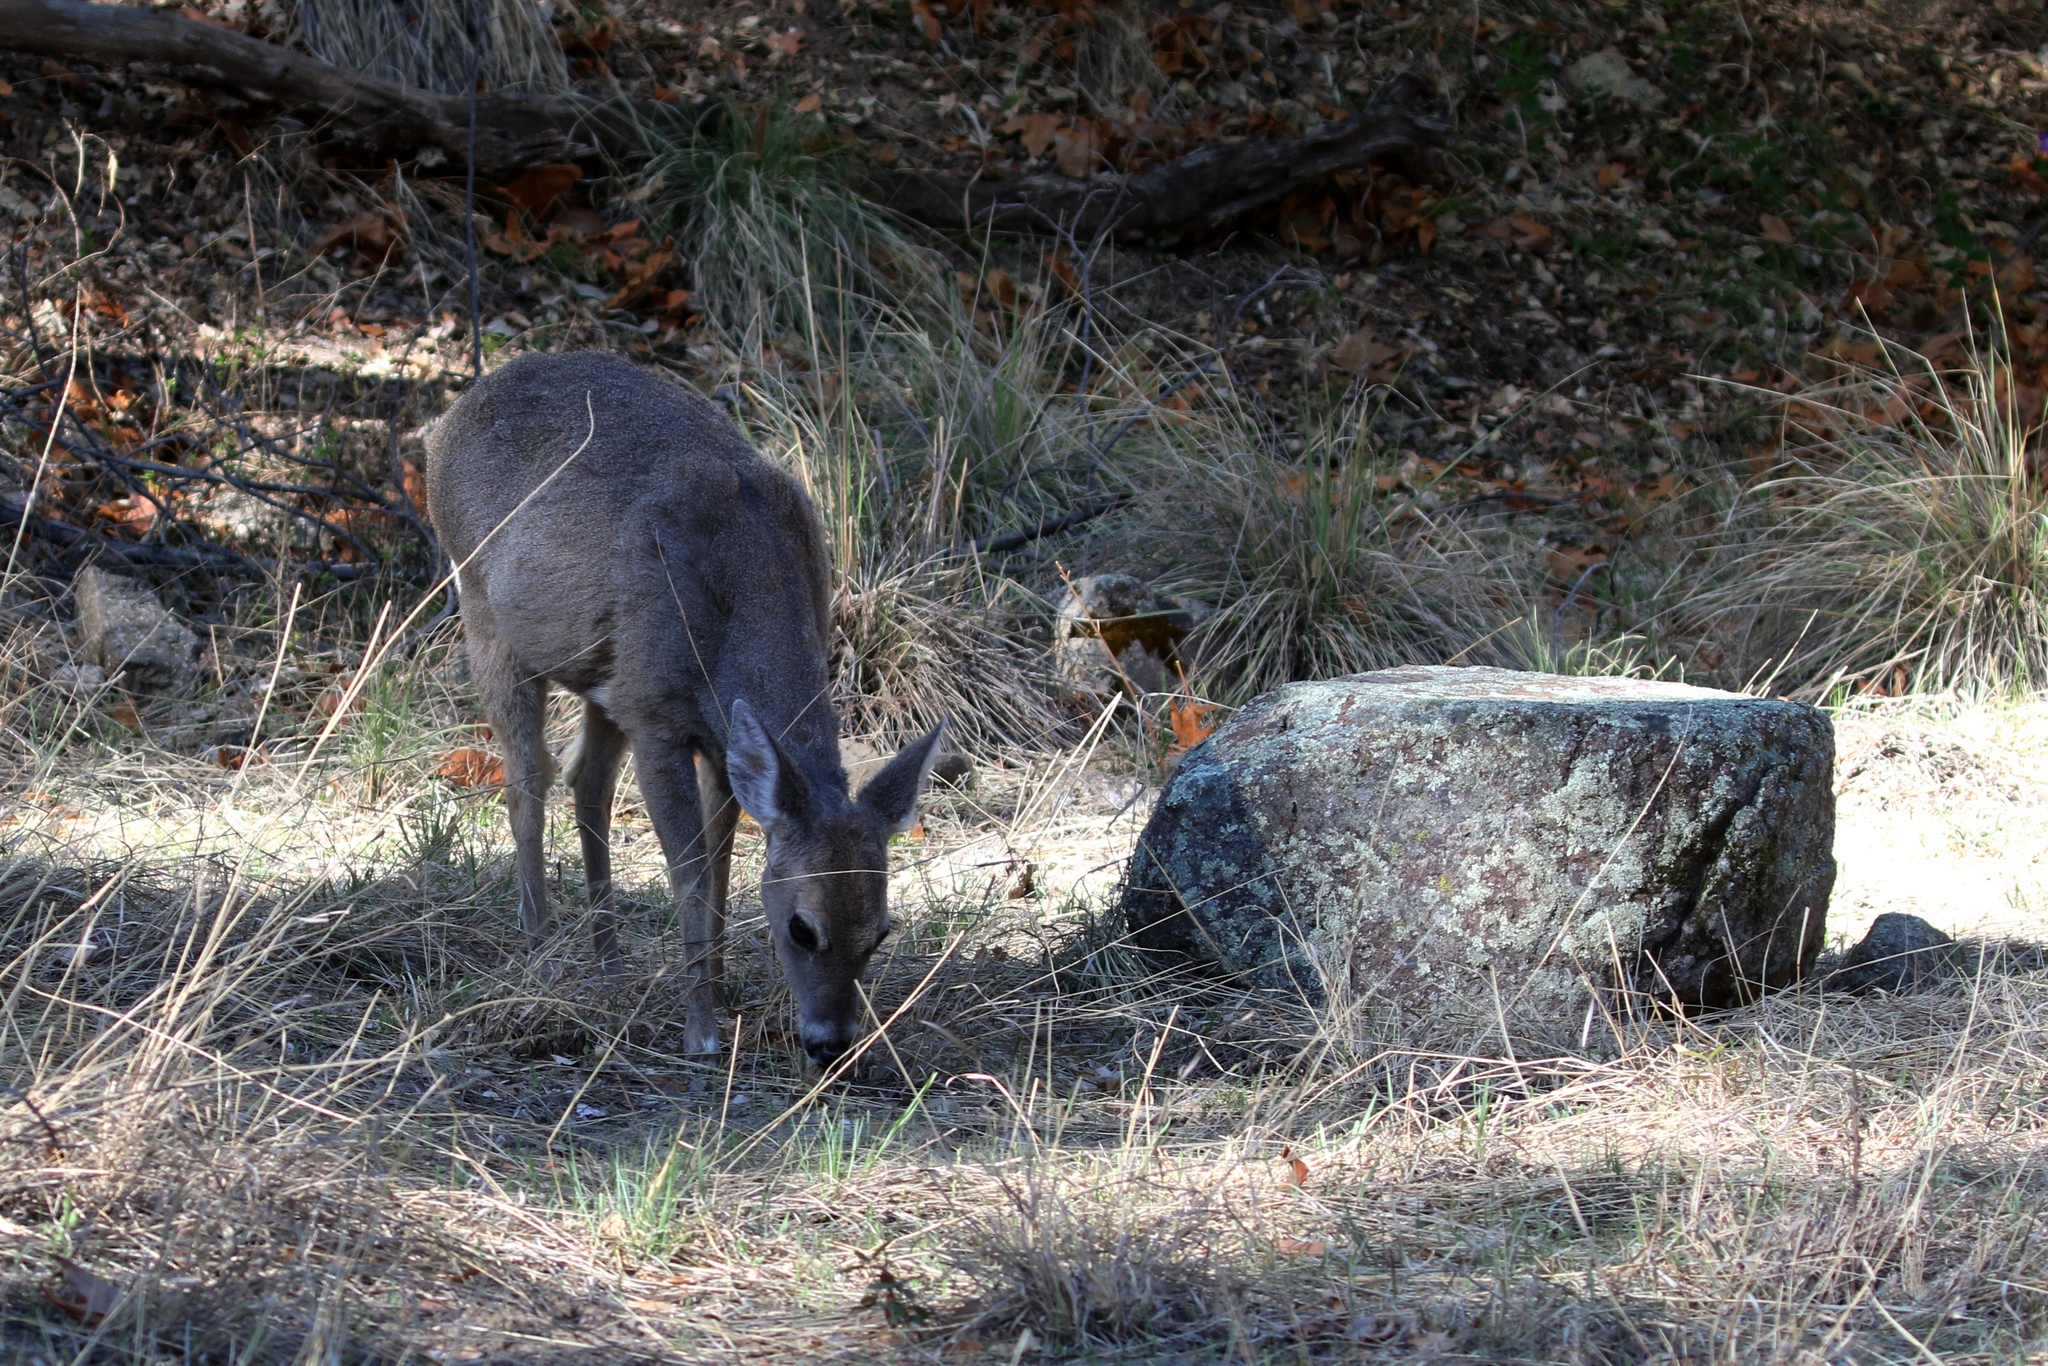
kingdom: Animalia
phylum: Chordata
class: Mammalia
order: Artiodactyla
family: Cervidae
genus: Odocoileus
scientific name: Odocoileus virginianus
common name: White-tailed deer
